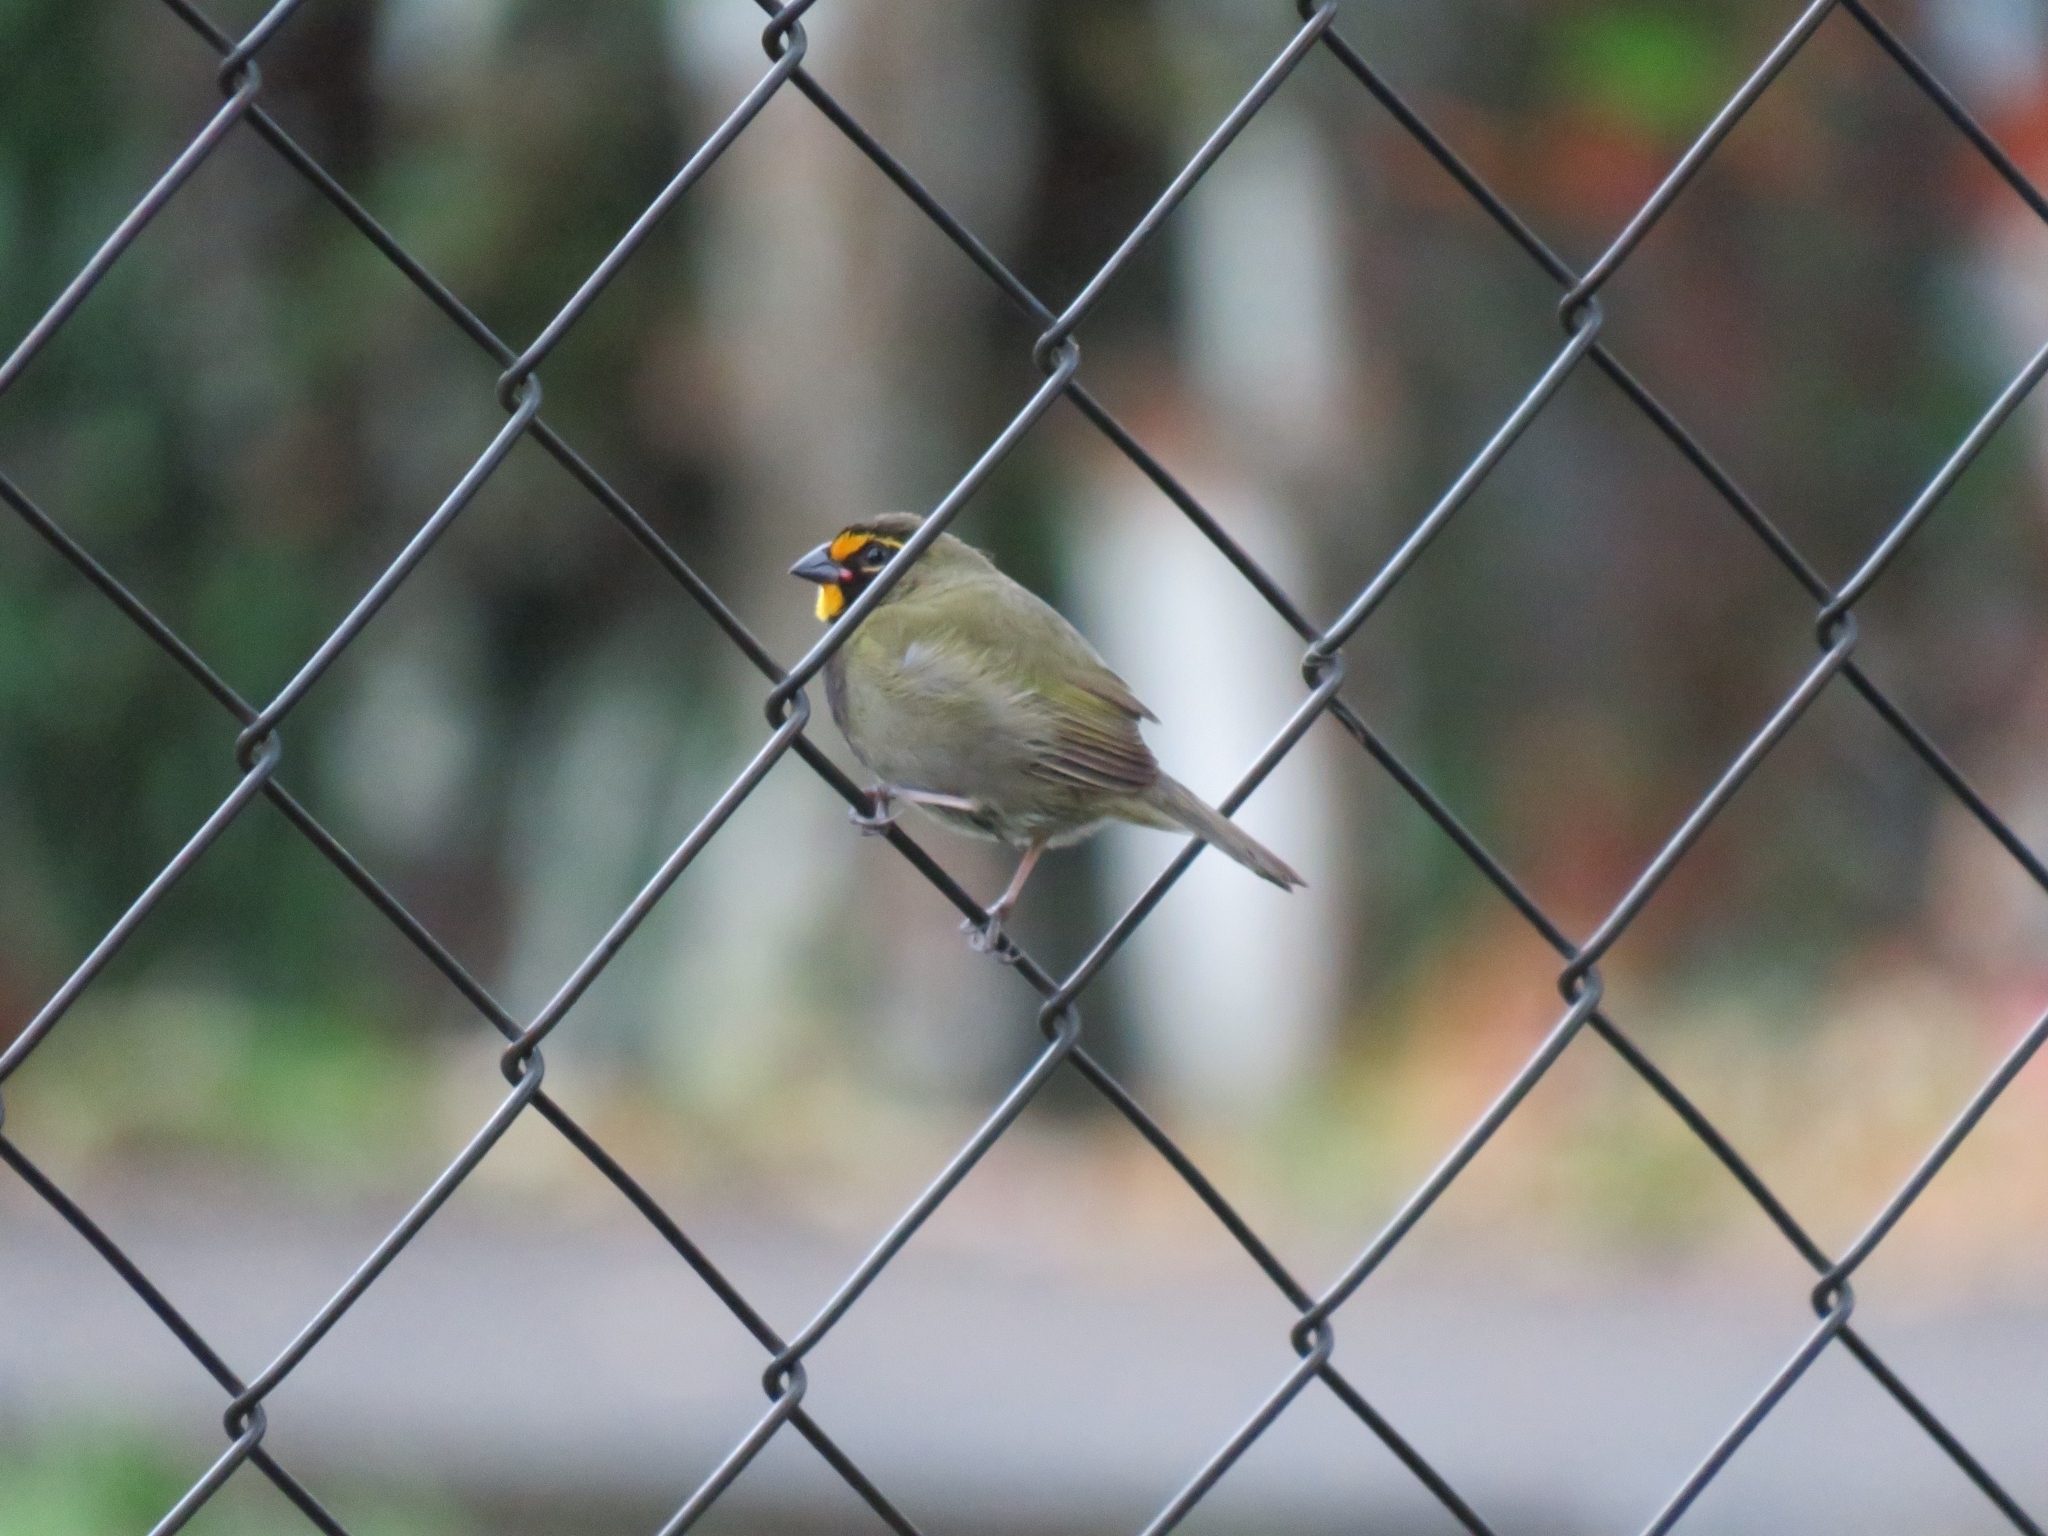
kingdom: Animalia
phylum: Chordata
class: Aves
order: Passeriformes
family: Thraupidae
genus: Tiaris
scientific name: Tiaris olivaceus
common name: Yellow-faced grassquit
